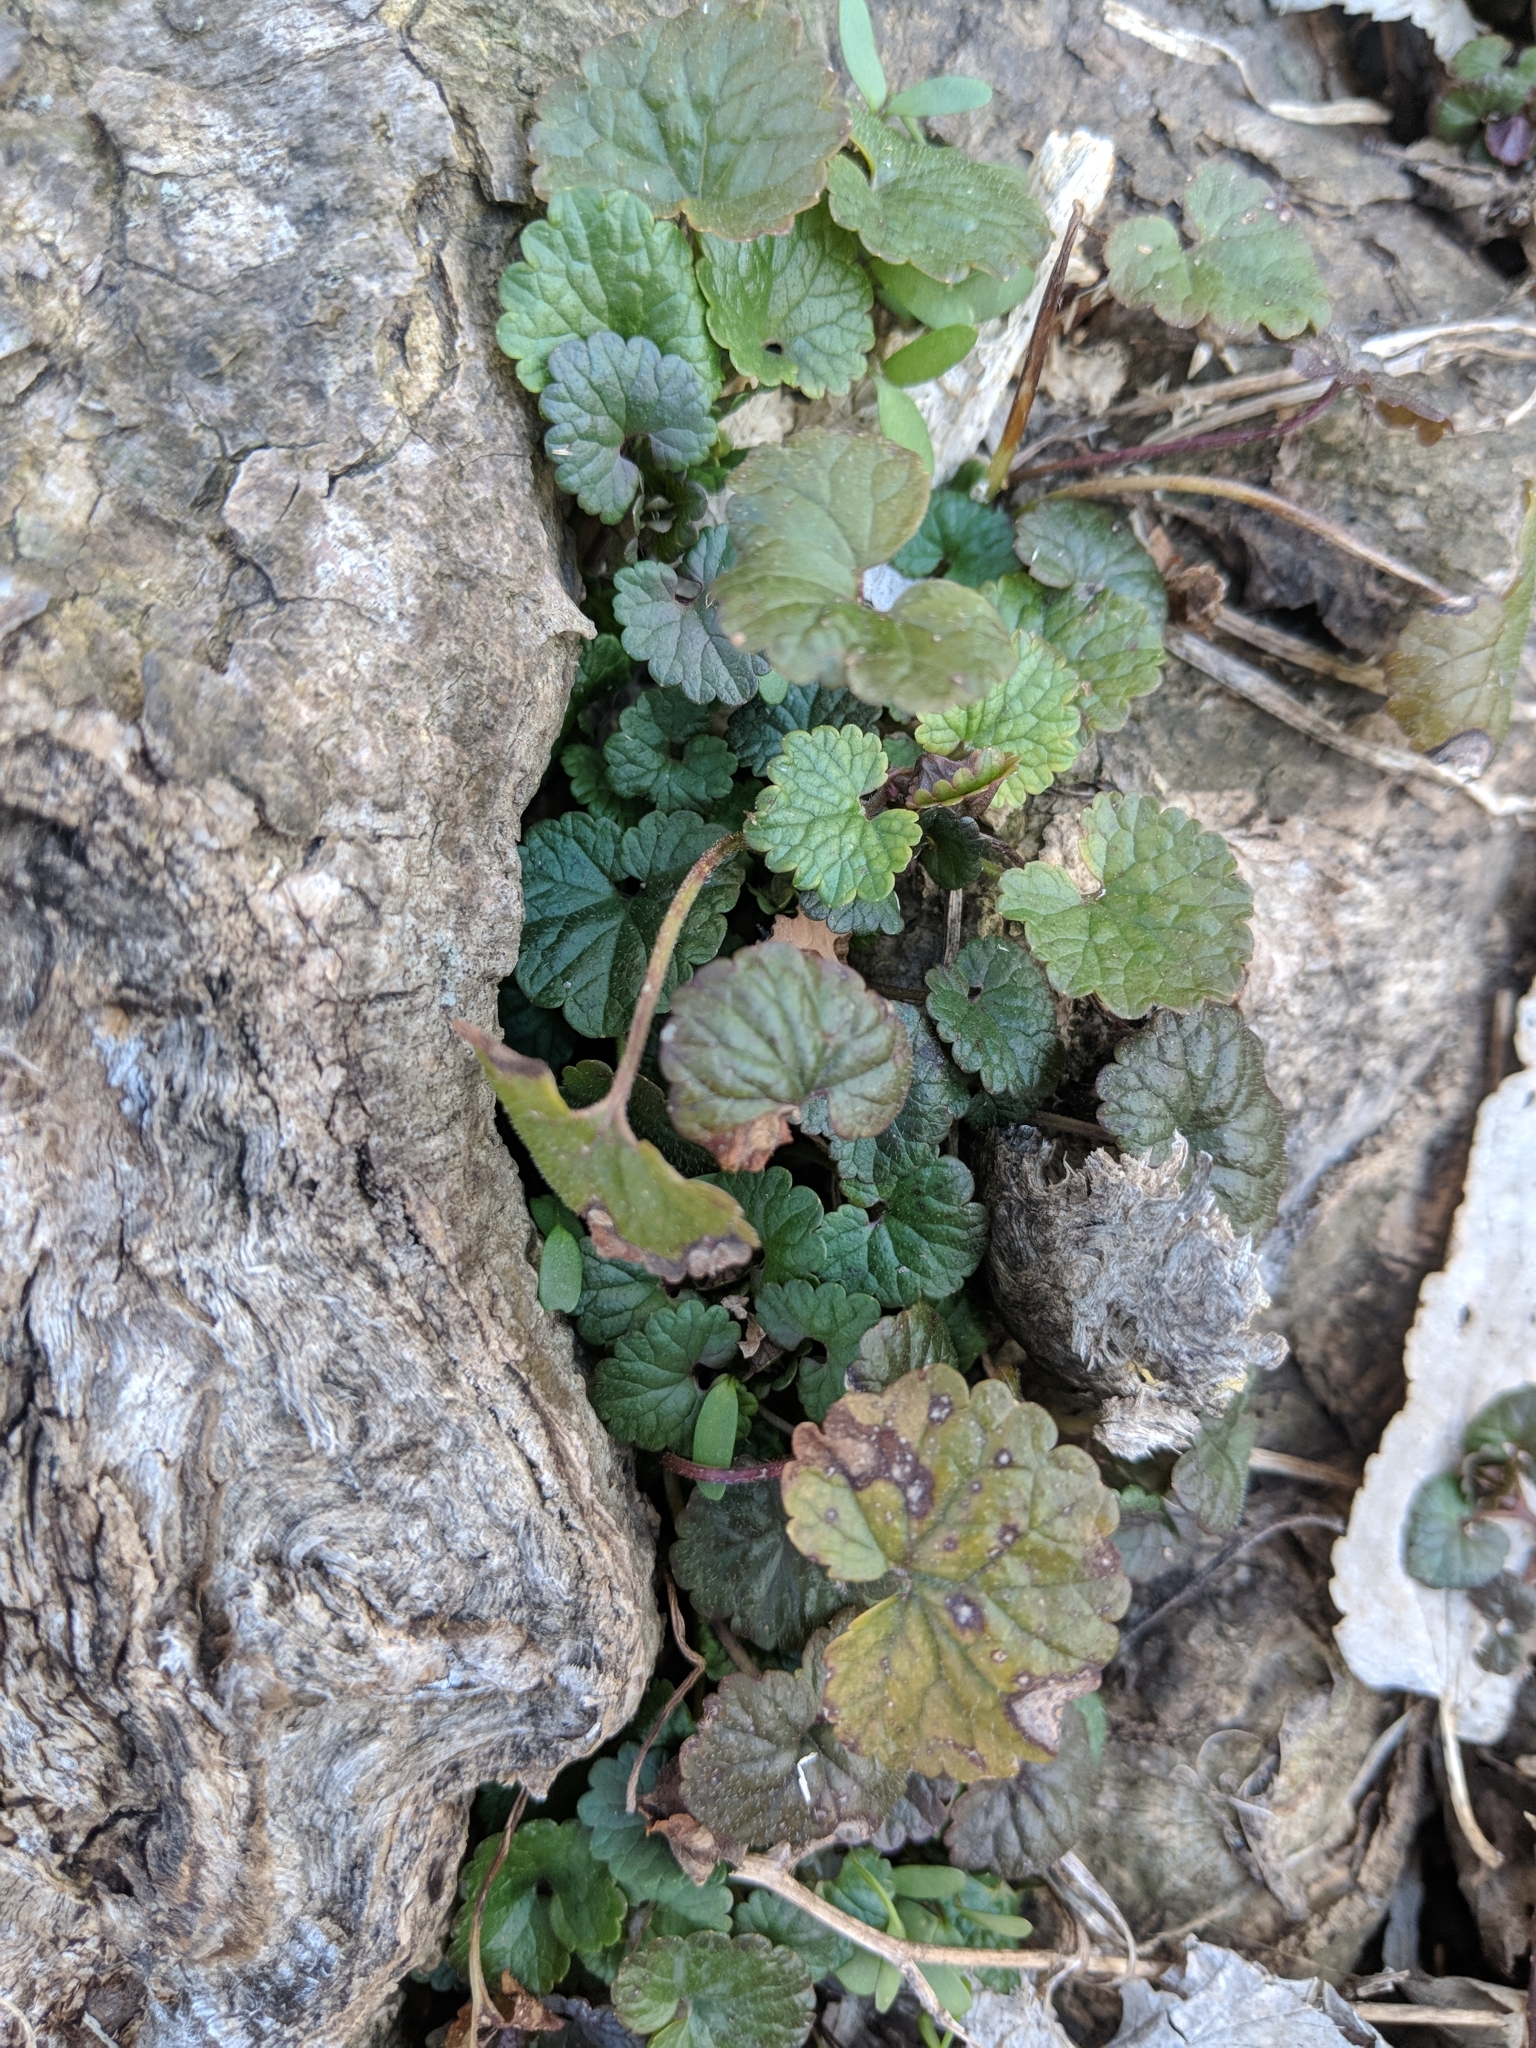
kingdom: Plantae
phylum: Tracheophyta
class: Magnoliopsida
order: Lamiales
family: Lamiaceae
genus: Glechoma
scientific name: Glechoma hederacea
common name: Ground ivy
